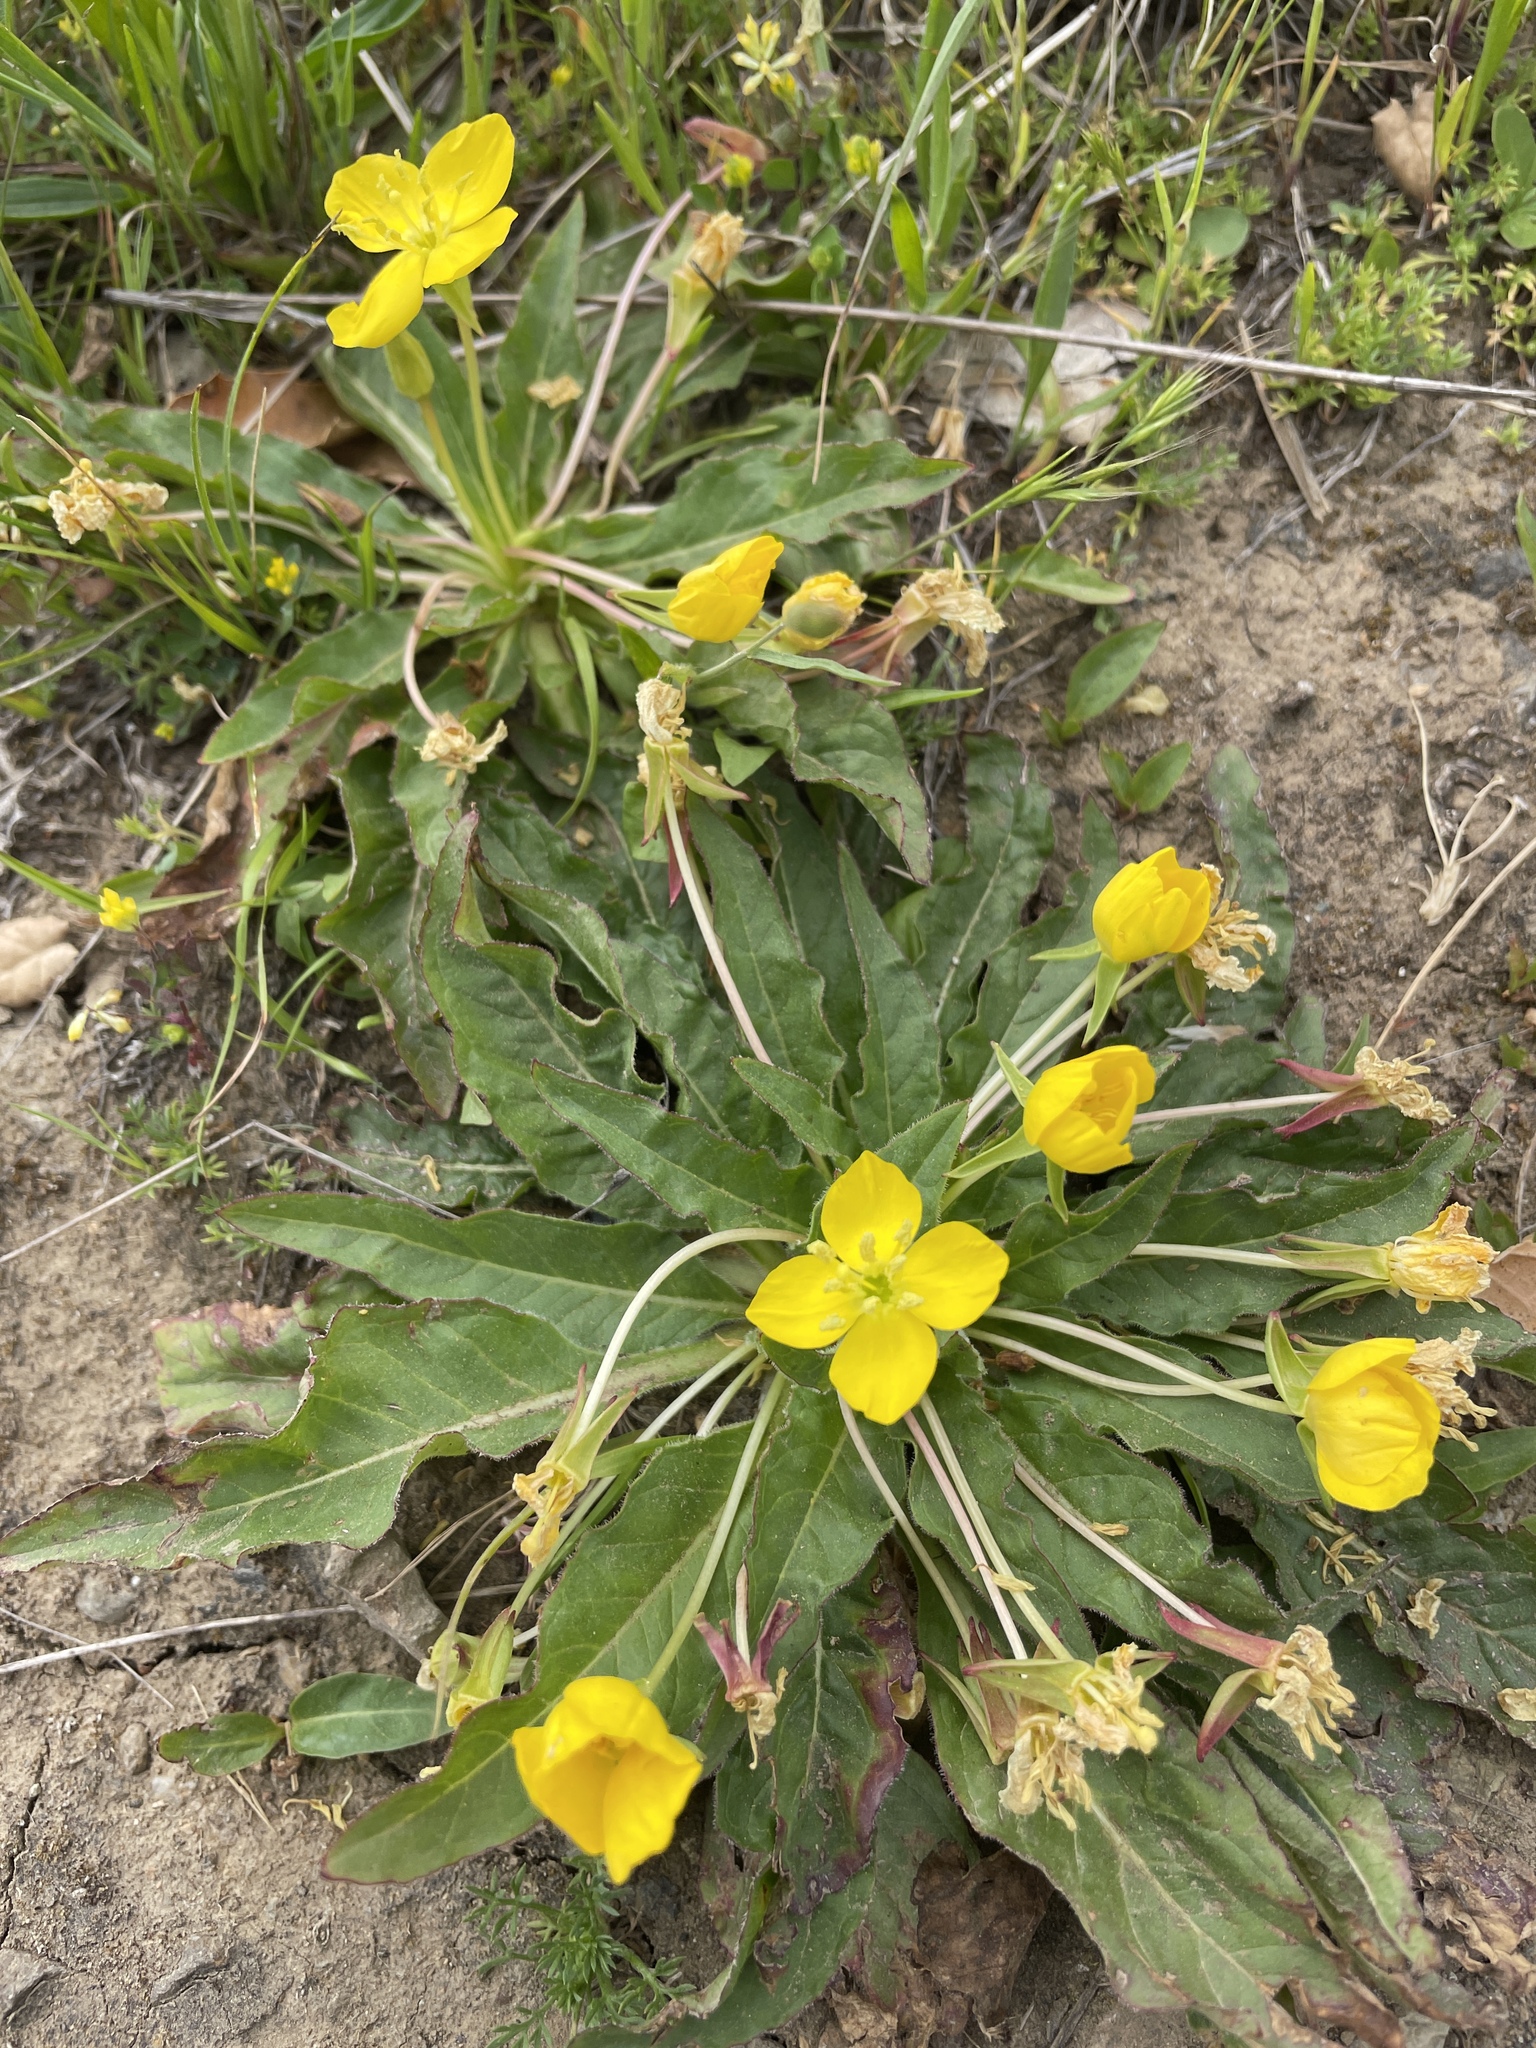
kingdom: Plantae
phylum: Tracheophyta
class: Magnoliopsida
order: Myrtales
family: Onagraceae
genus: Taraxia
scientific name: Taraxia ovata
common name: Goldeneggs
